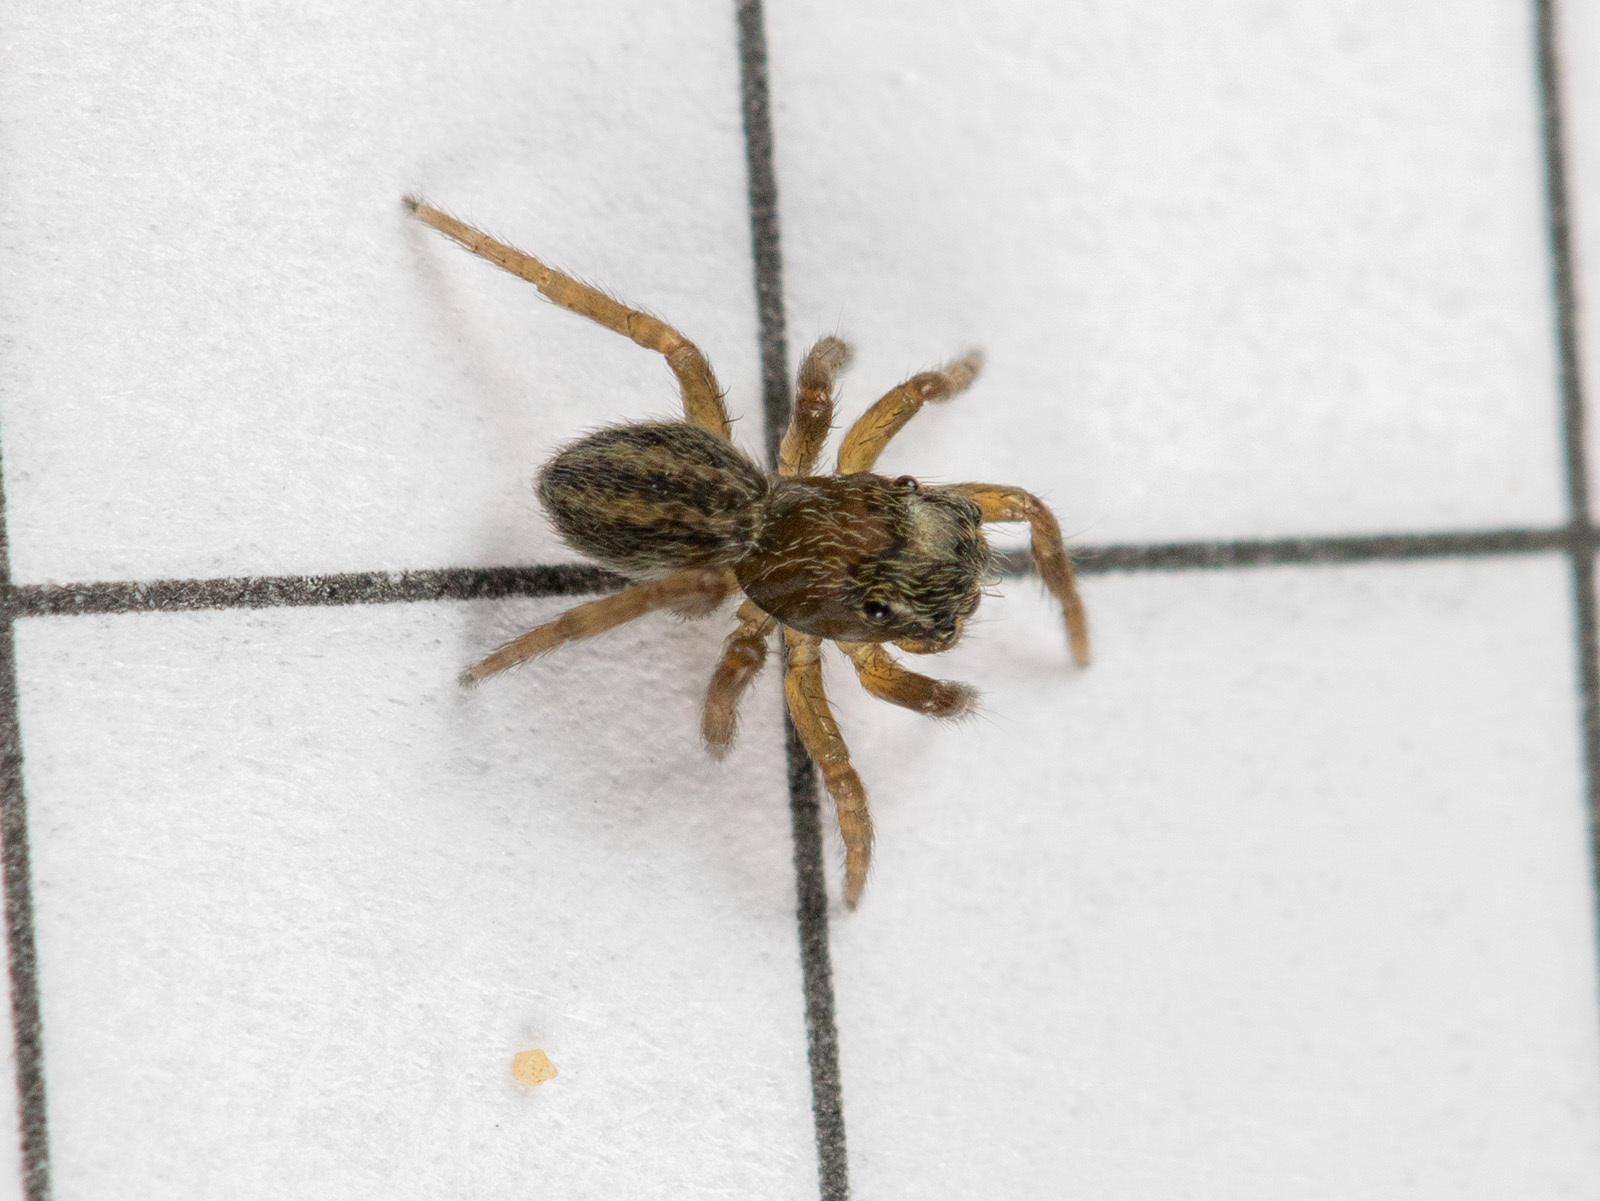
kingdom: Animalia
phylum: Arthropoda
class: Arachnida
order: Araneae
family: Salticidae
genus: Euophrys
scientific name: Euophrys uralensis
